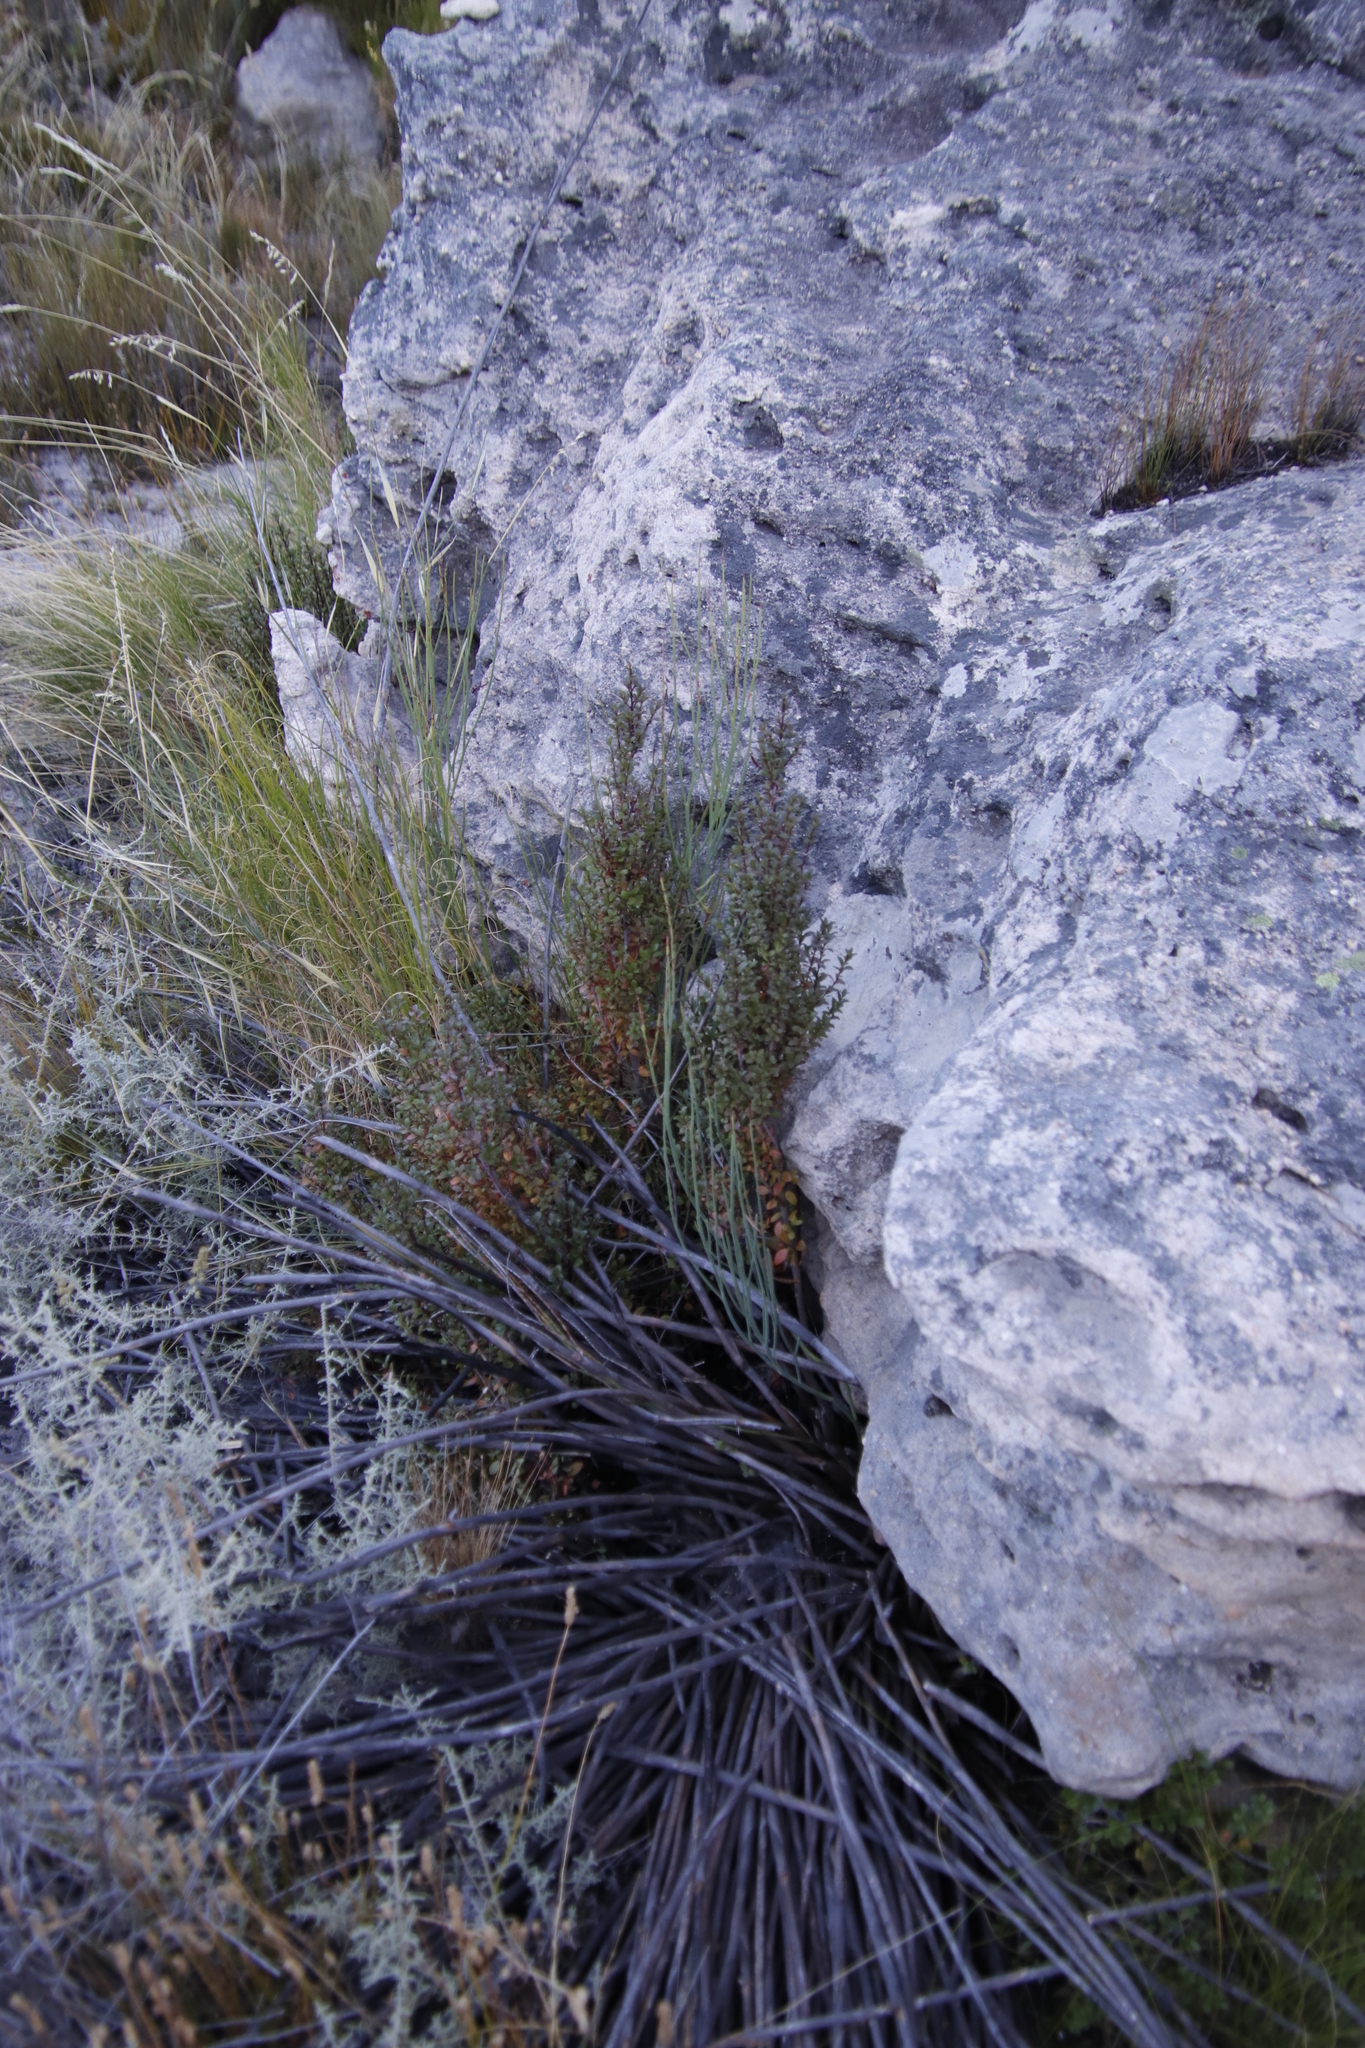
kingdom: Plantae
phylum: Tracheophyta
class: Magnoliopsida
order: Ericales
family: Primulaceae
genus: Myrsine
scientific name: Myrsine africana
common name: African-boxwood
